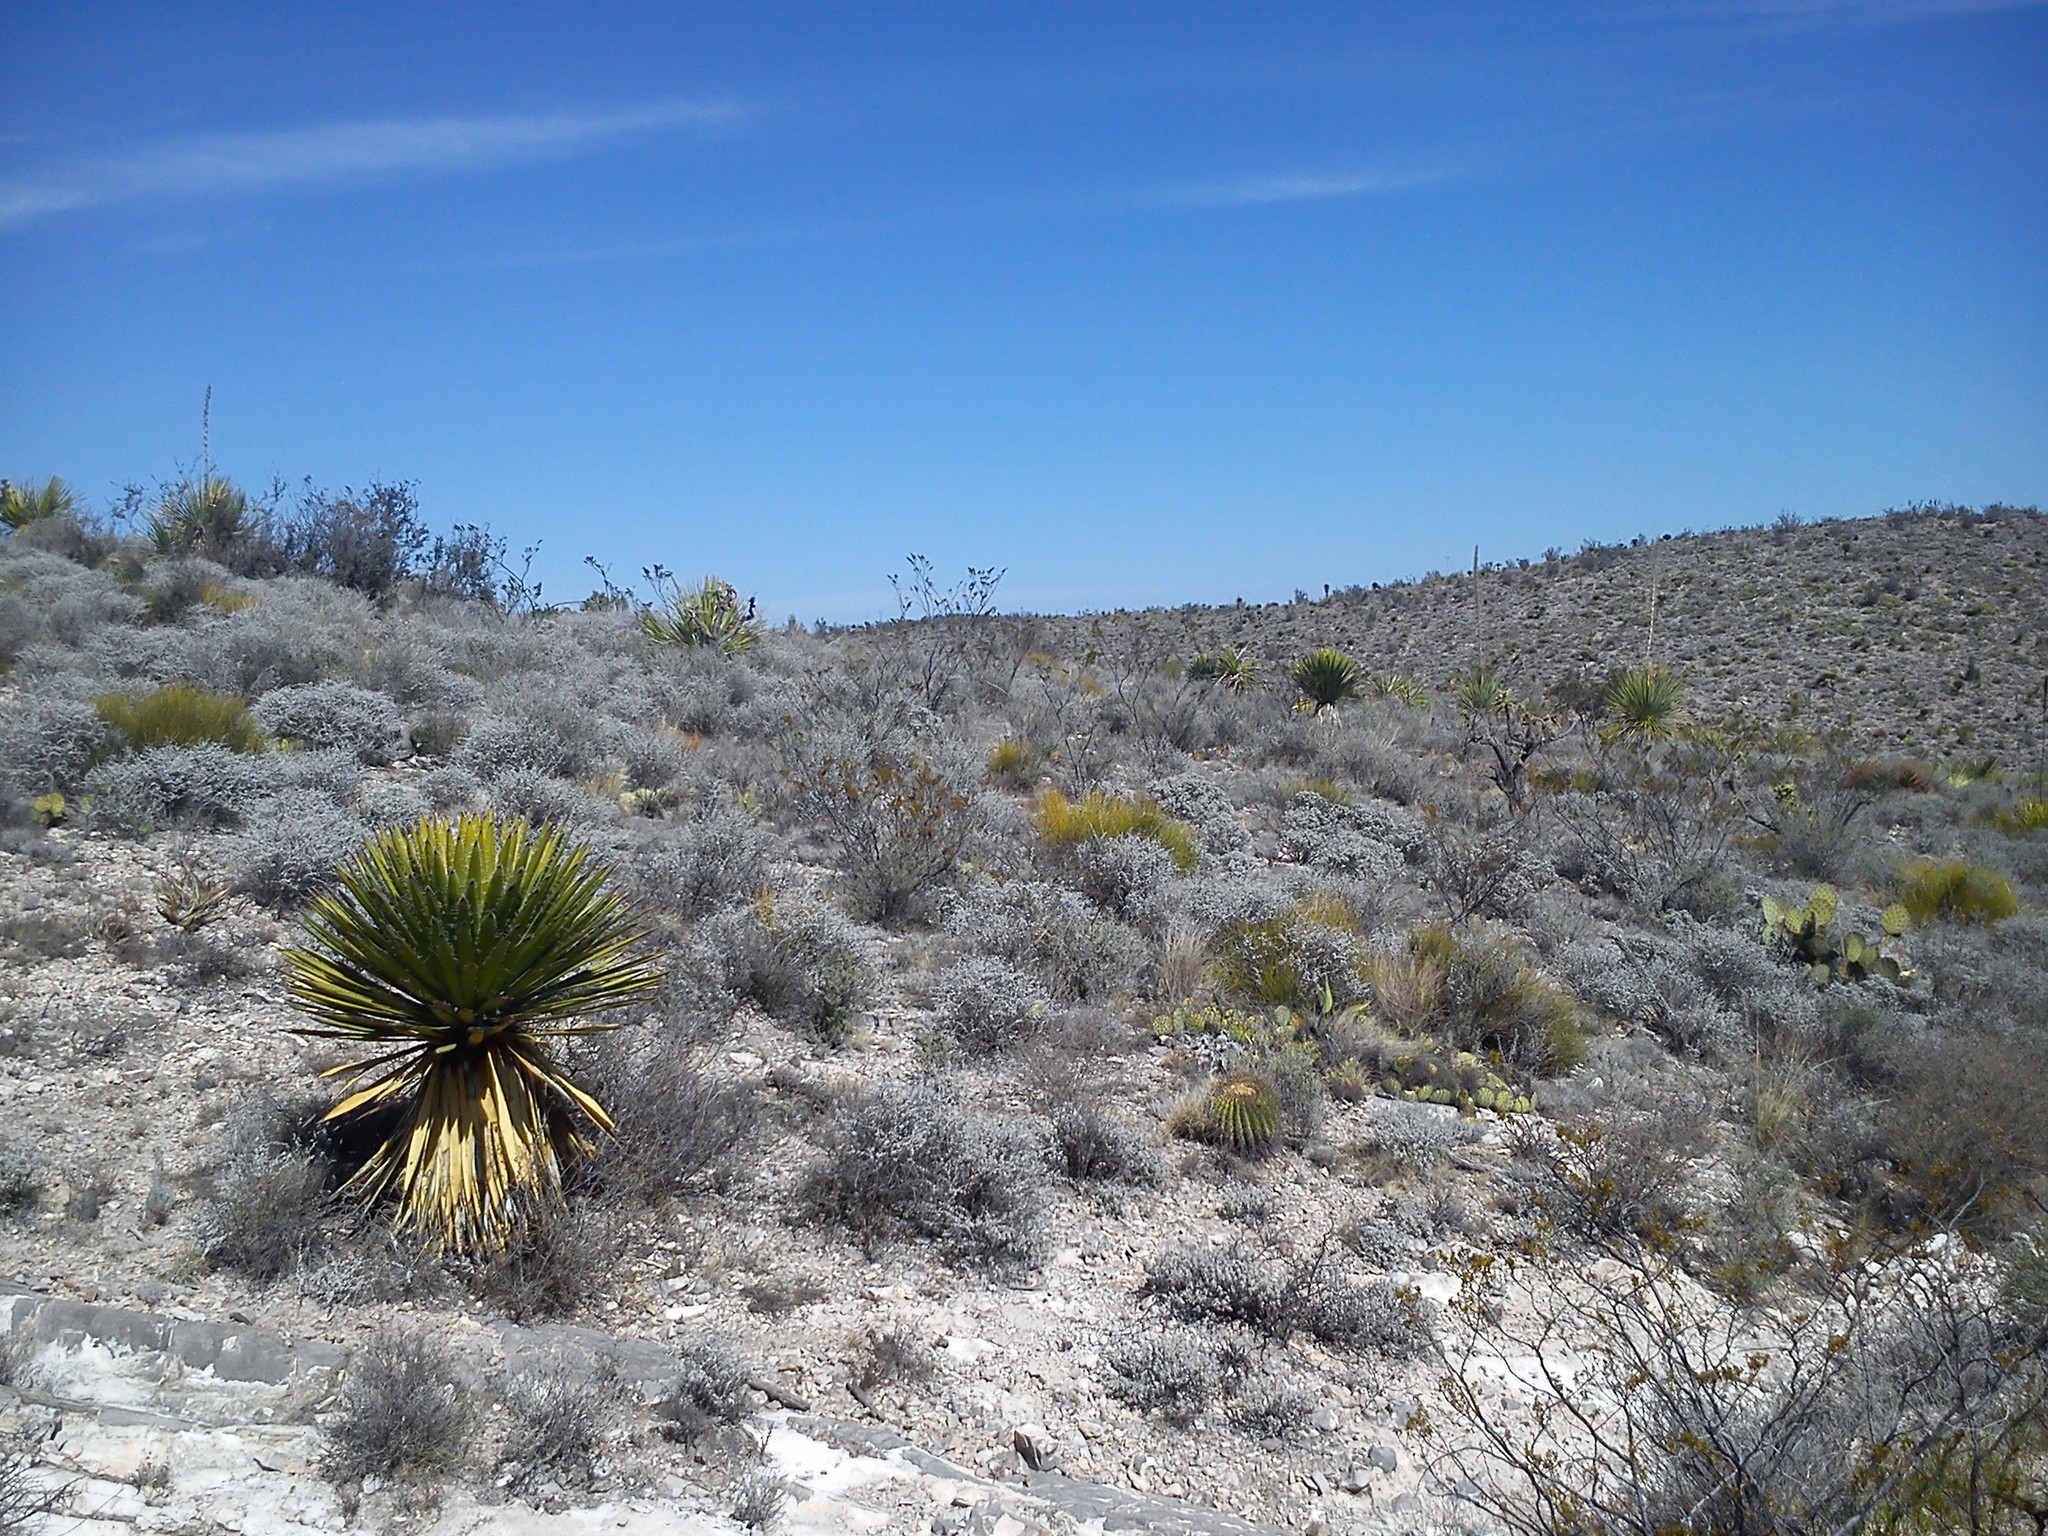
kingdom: Plantae
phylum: Tracheophyta
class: Liliopsida
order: Asparagales
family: Asparagaceae
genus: Yucca
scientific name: Yucca faxoniana
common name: Spanish dagger
